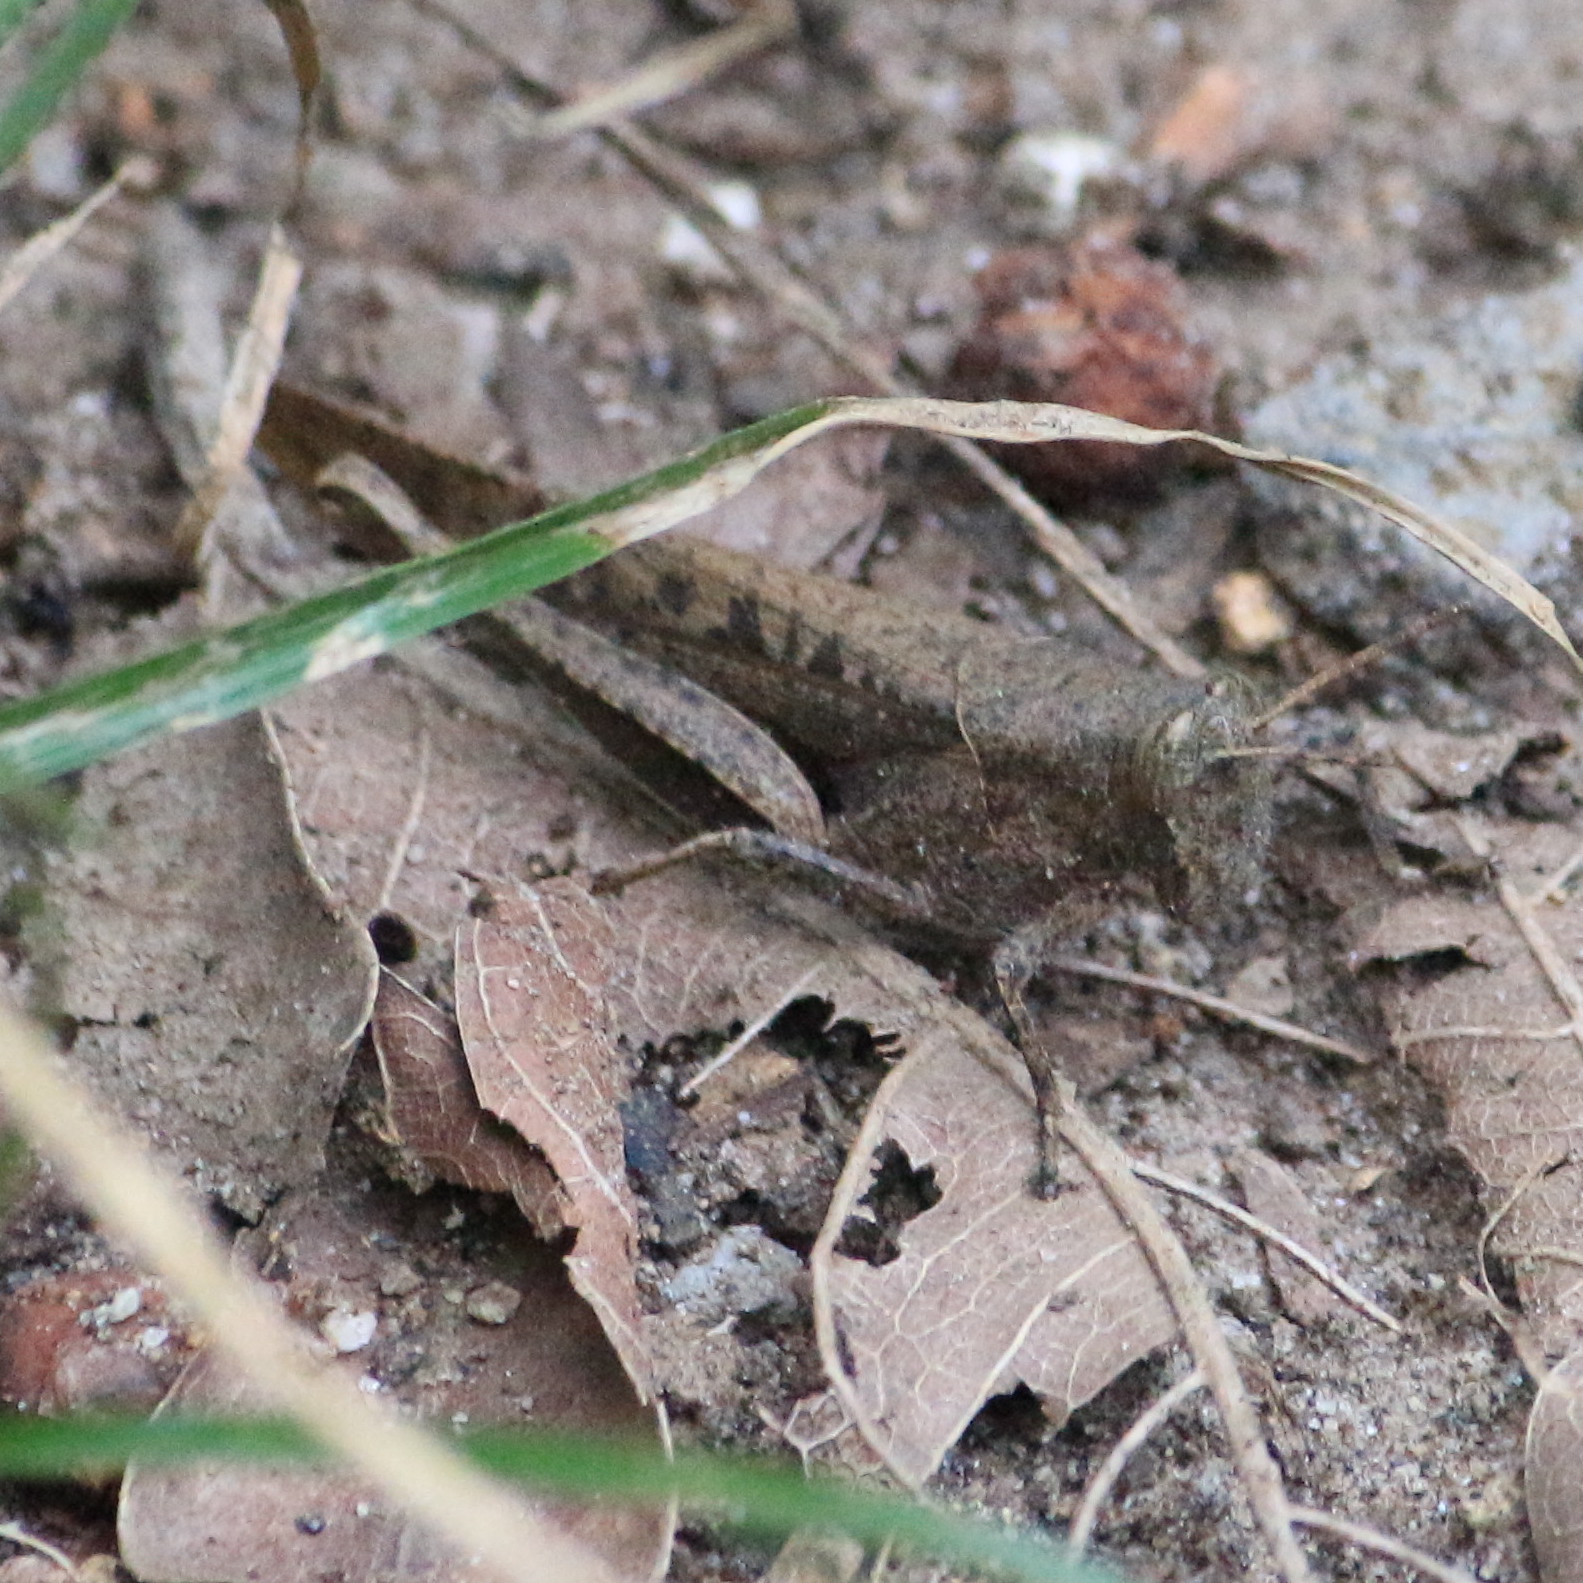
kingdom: Animalia
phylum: Arthropoda
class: Insecta
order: Orthoptera
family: Acrididae
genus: Abracris
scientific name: Abracris flavolineata
